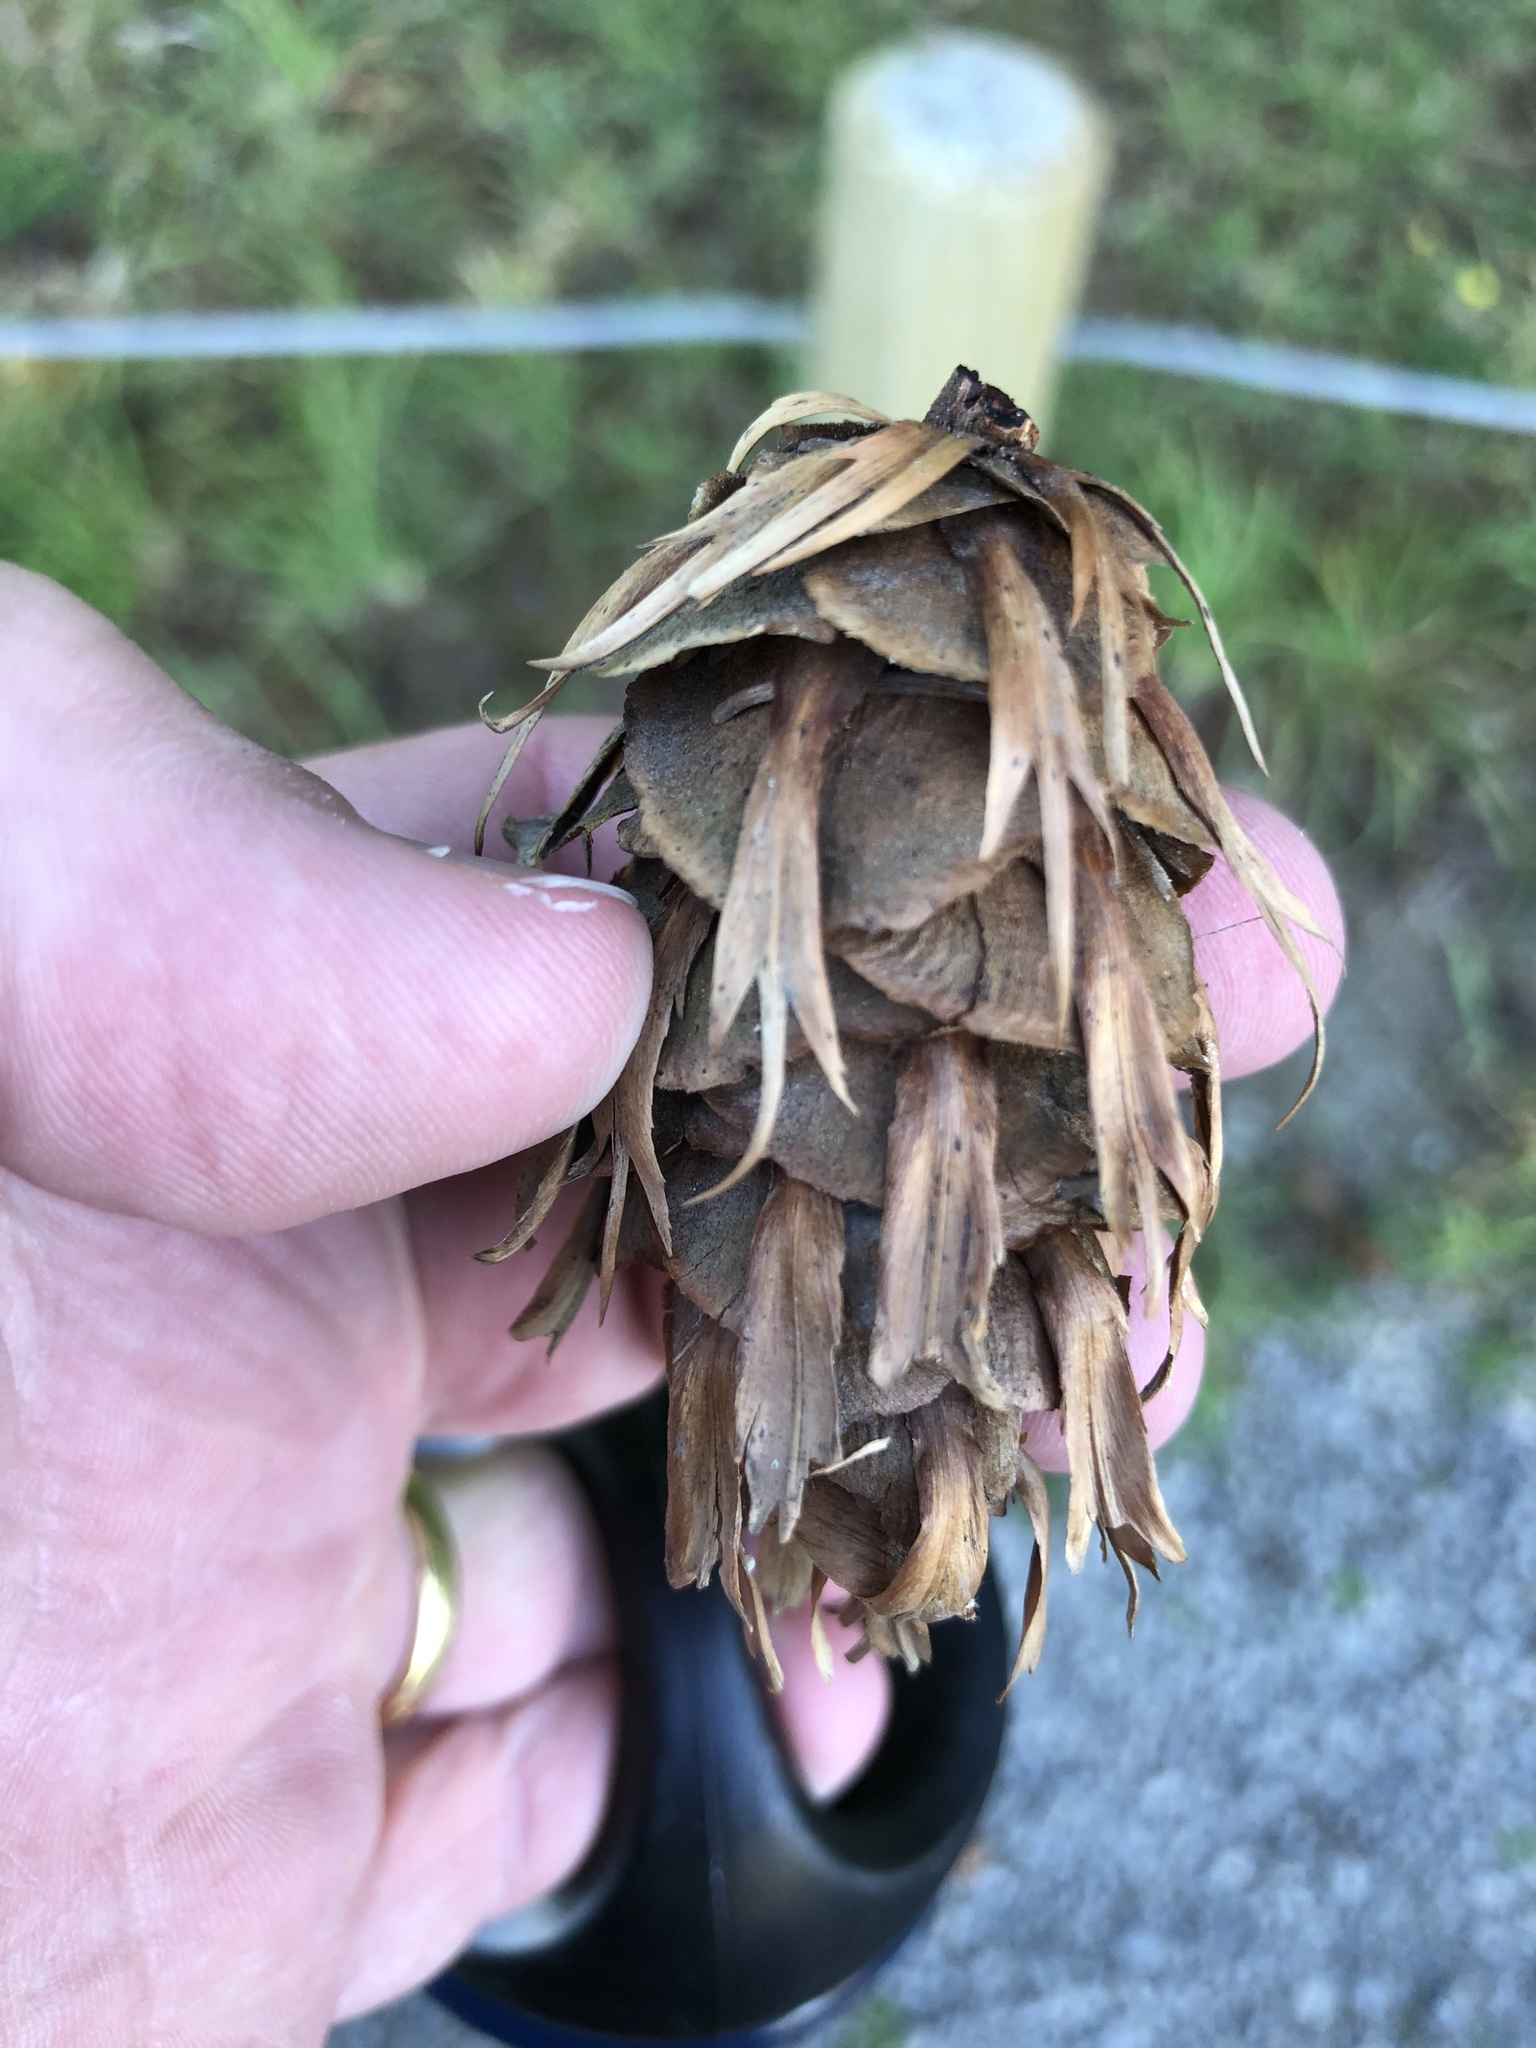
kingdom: Plantae
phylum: Tracheophyta
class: Pinopsida
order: Pinales
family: Pinaceae
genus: Pseudotsuga
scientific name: Pseudotsuga menziesii
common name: Douglas fir
